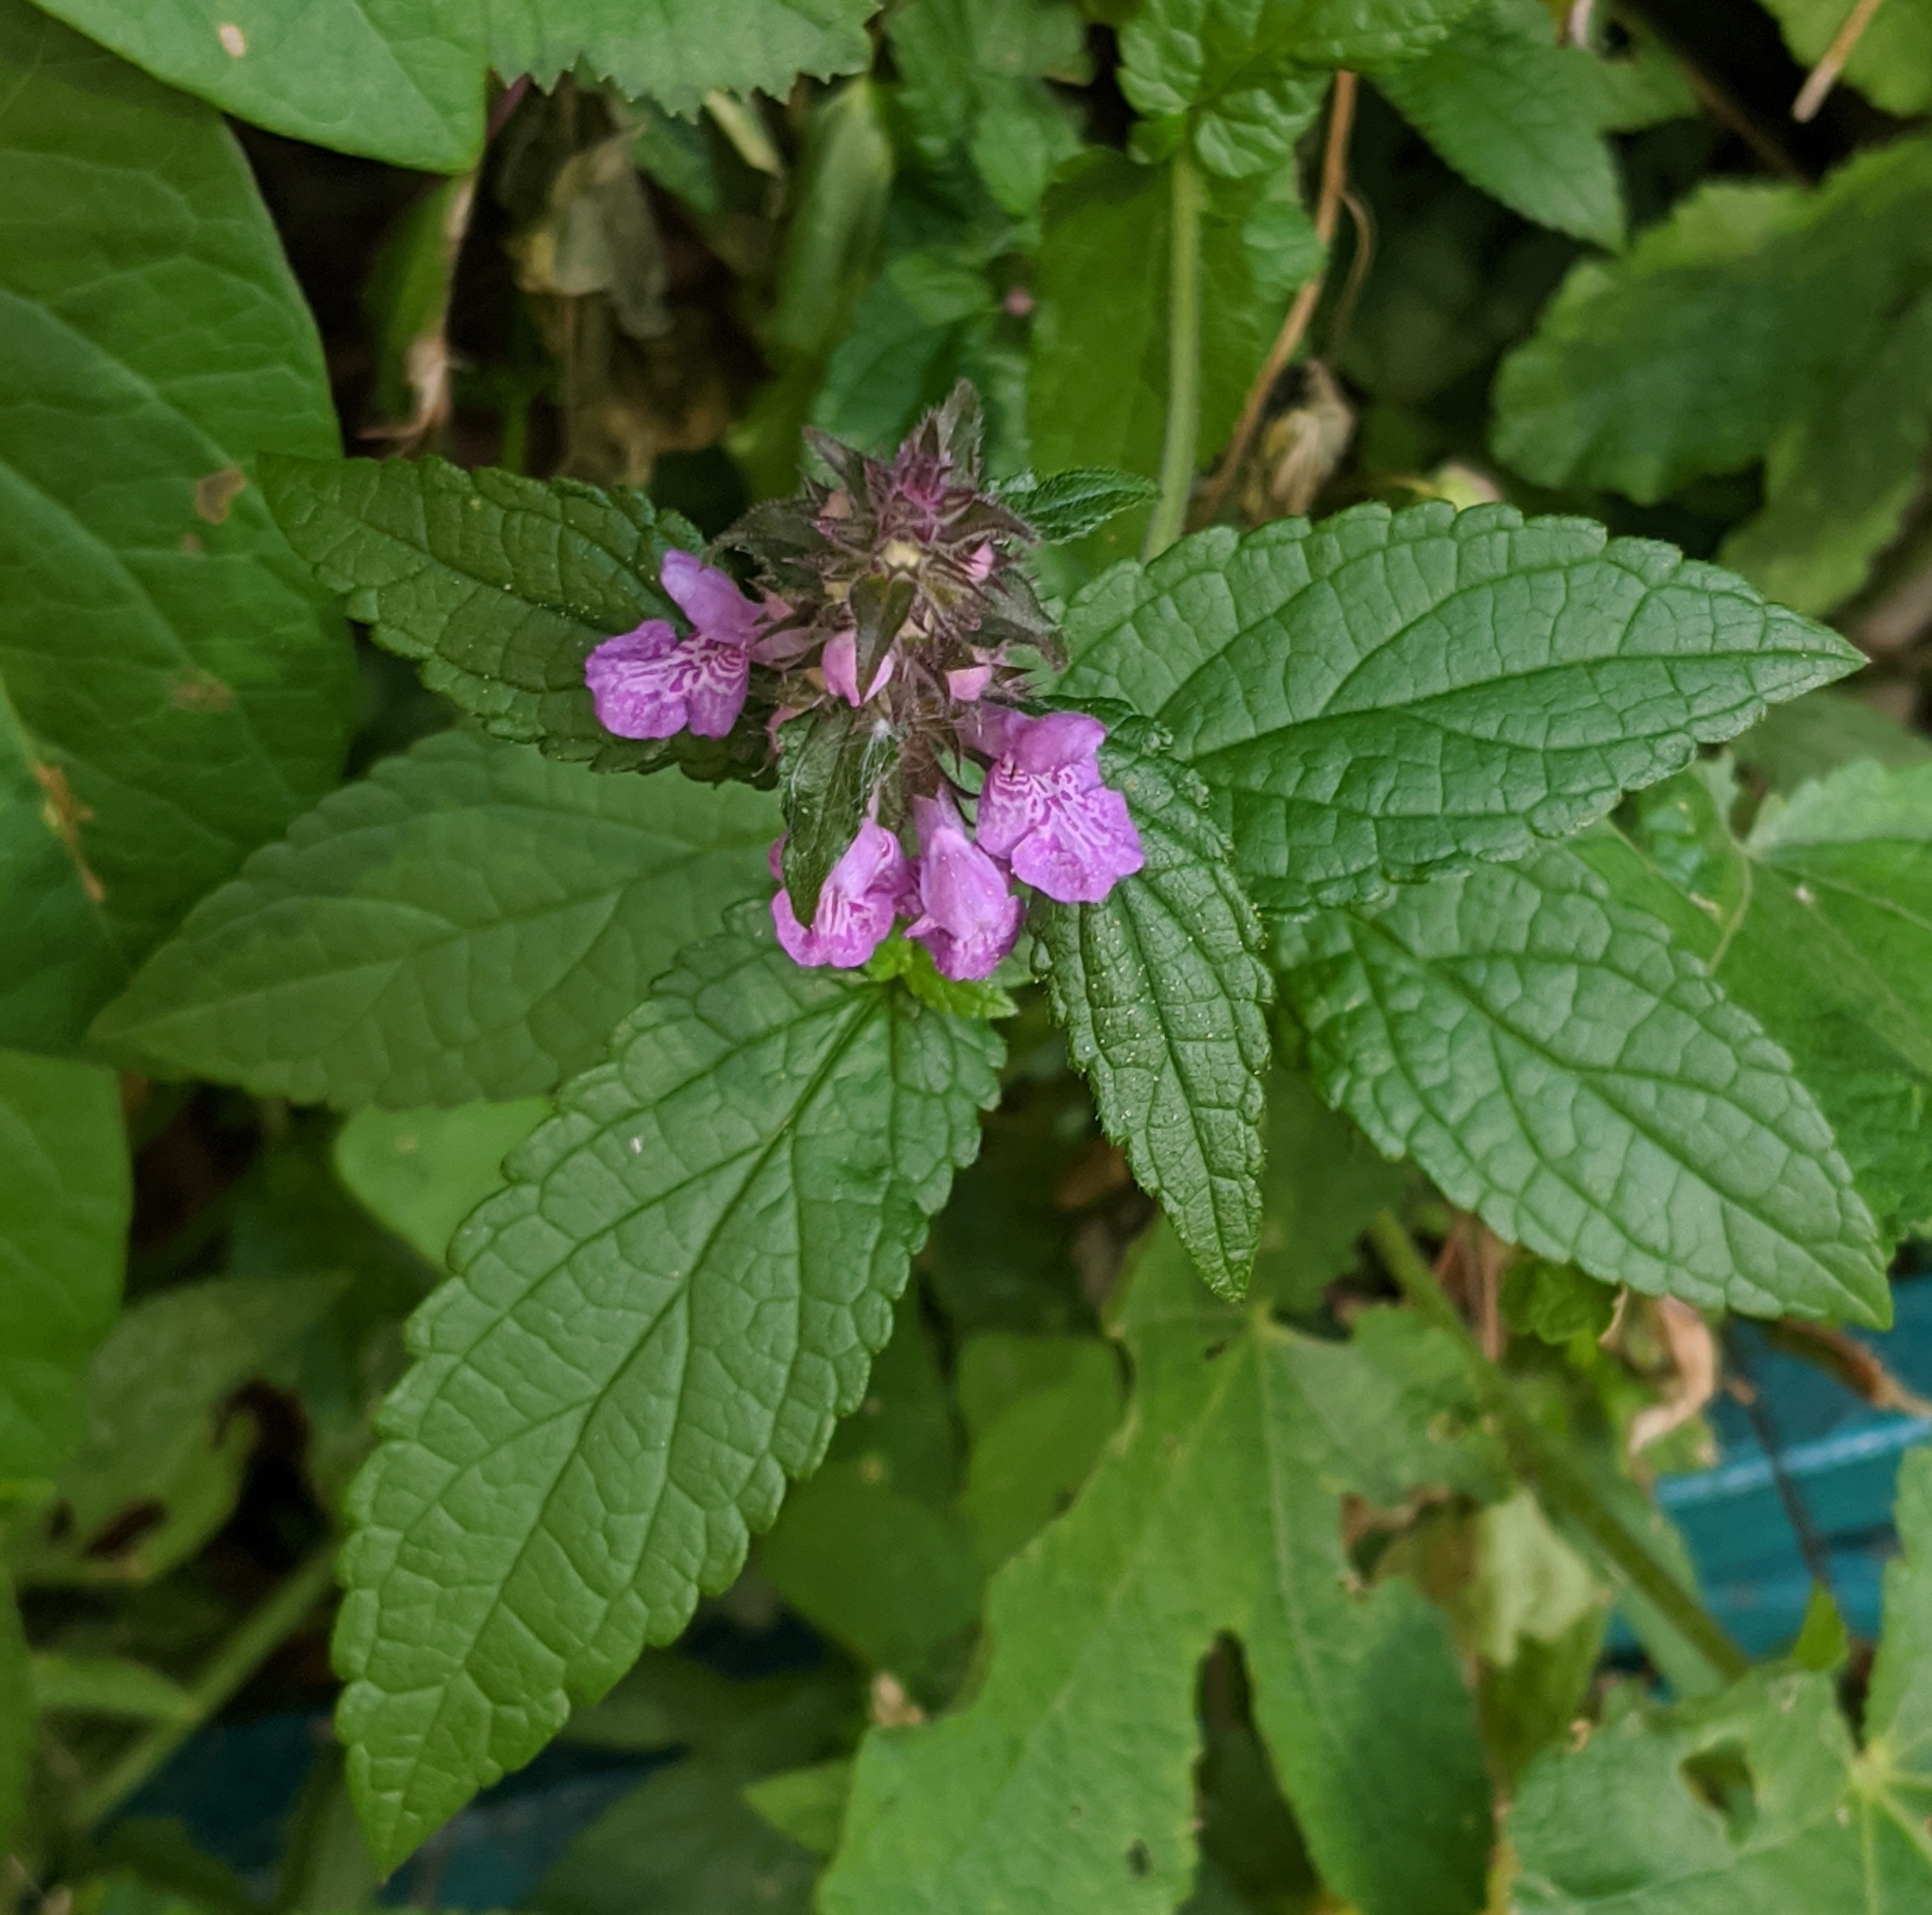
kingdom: Plantae
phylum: Tracheophyta
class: Magnoliopsida
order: Lamiales
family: Lamiaceae
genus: Stachys
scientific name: Stachys palustris
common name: Marsh woundwort
